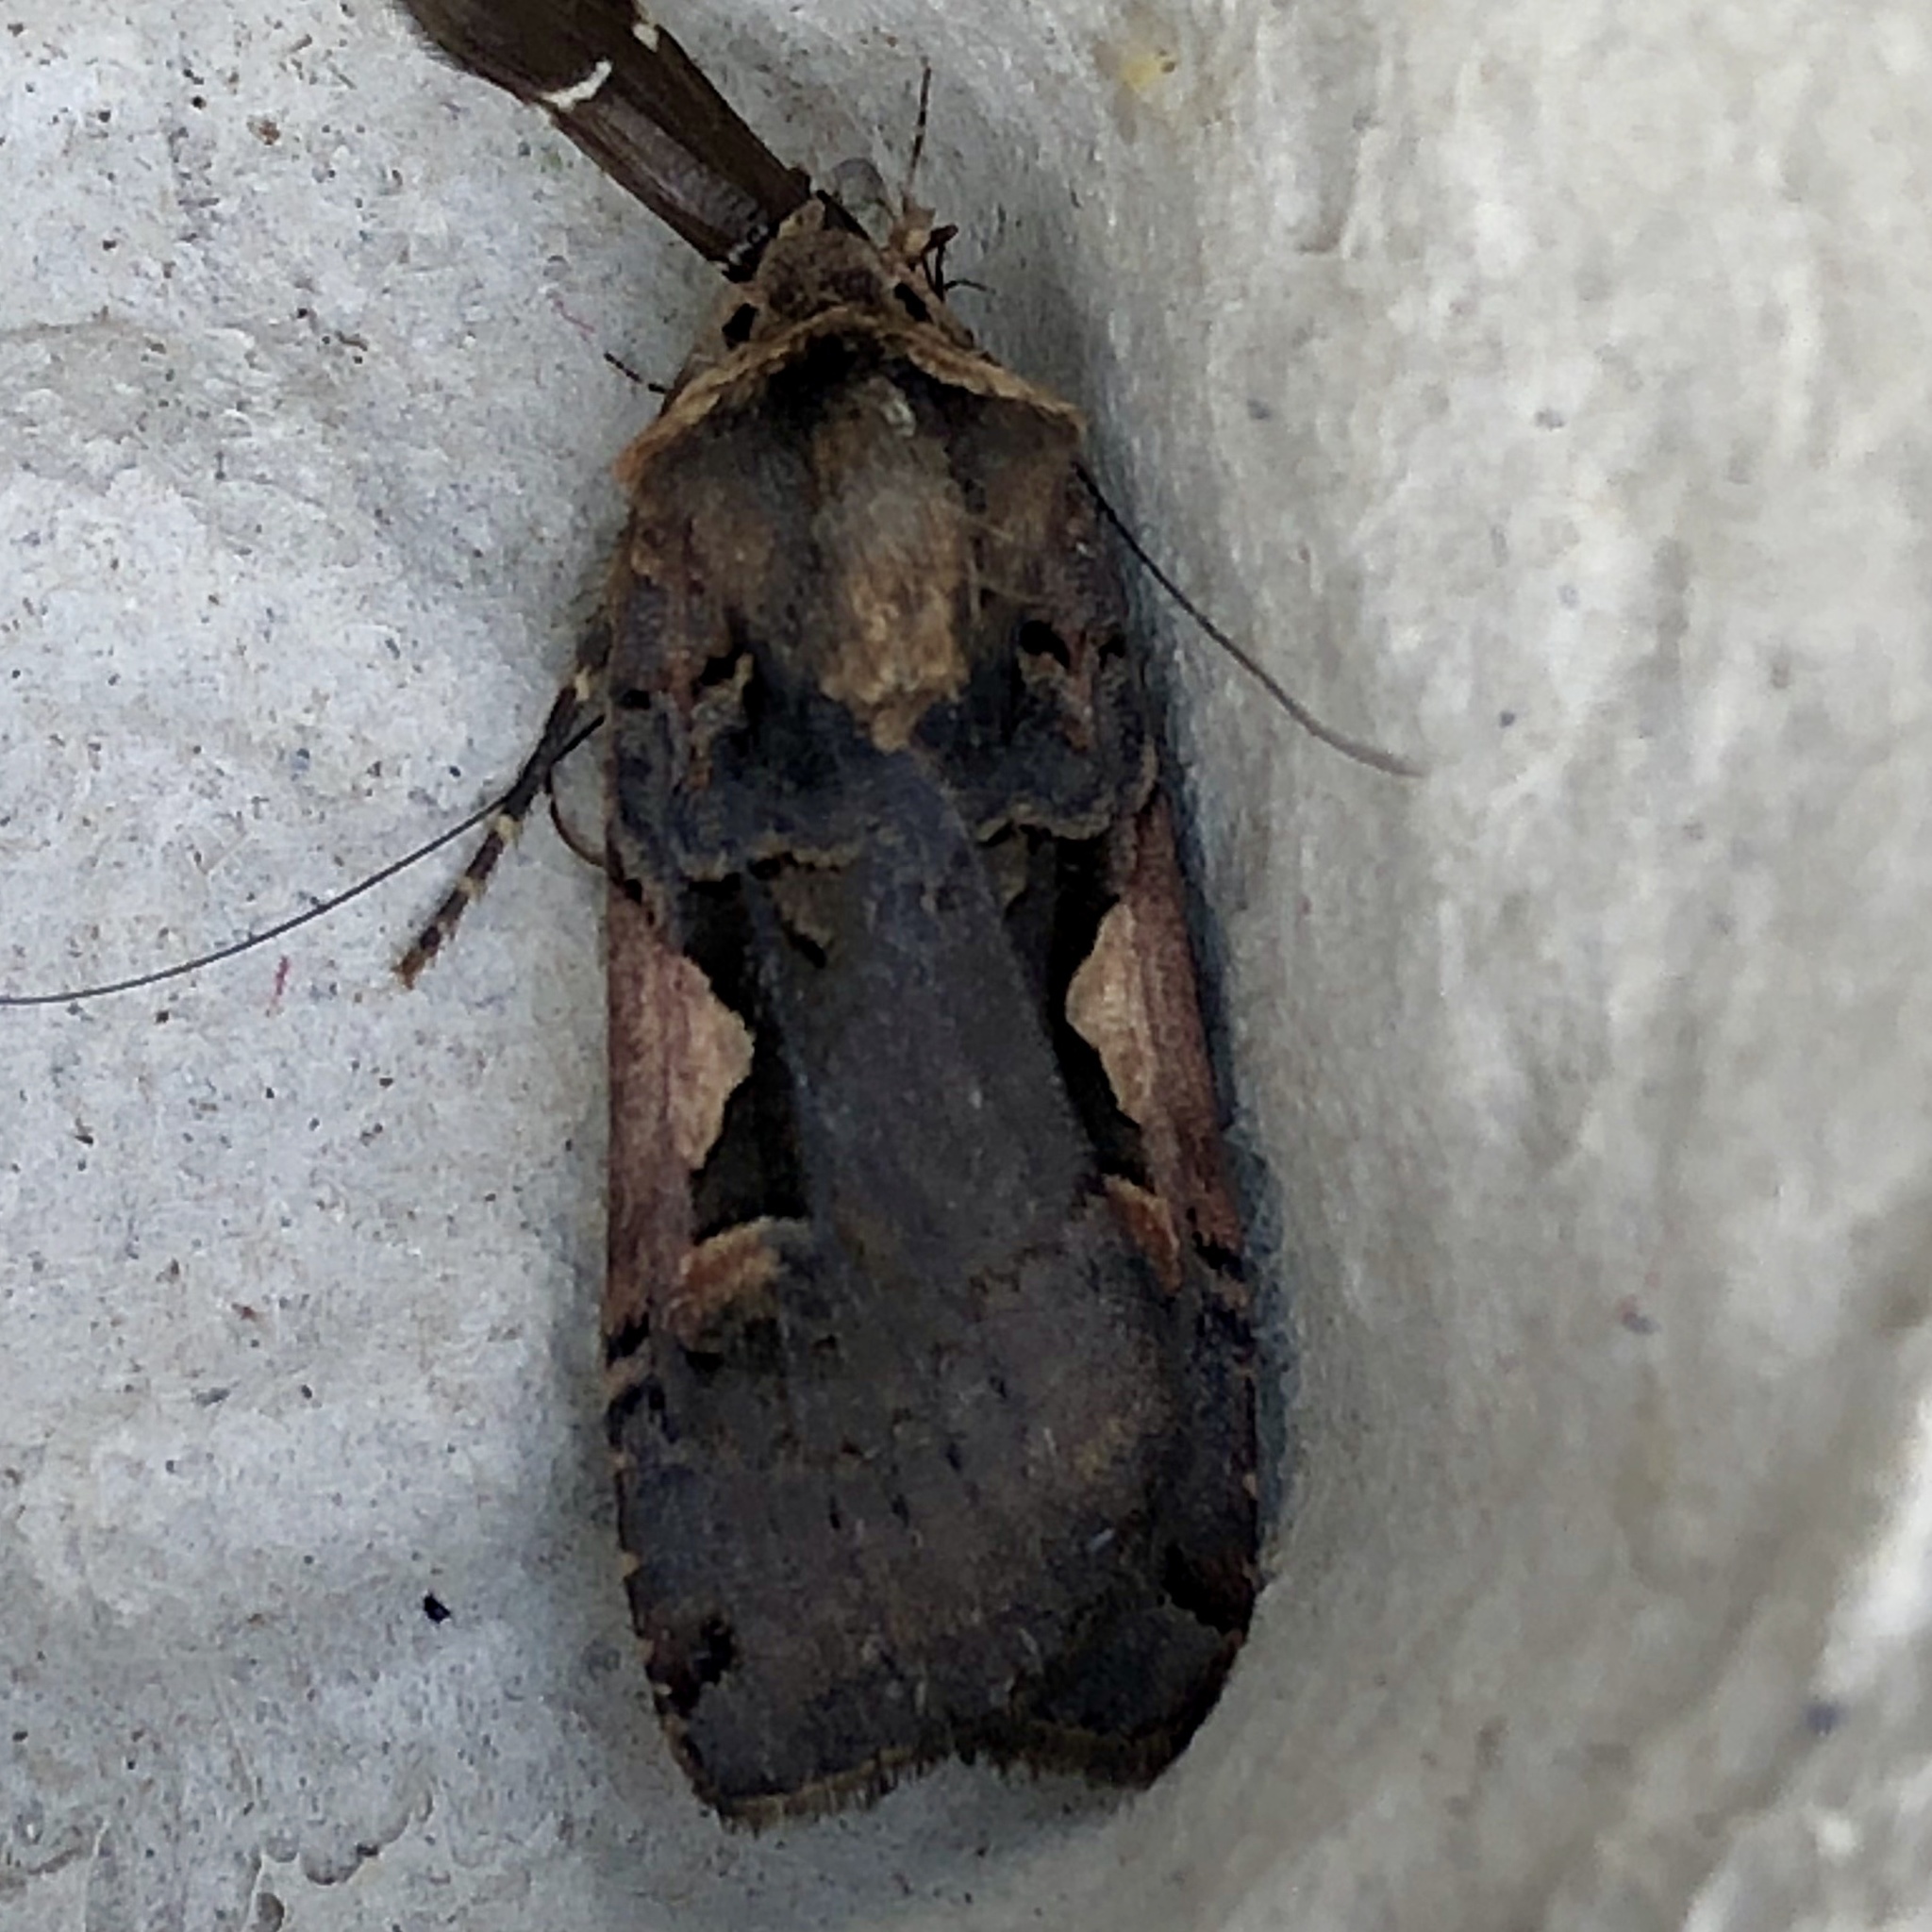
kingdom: Animalia
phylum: Arthropoda
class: Insecta
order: Lepidoptera
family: Noctuidae
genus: Xestia
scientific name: Xestia c-nigrum
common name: Setaceous hebrew character
